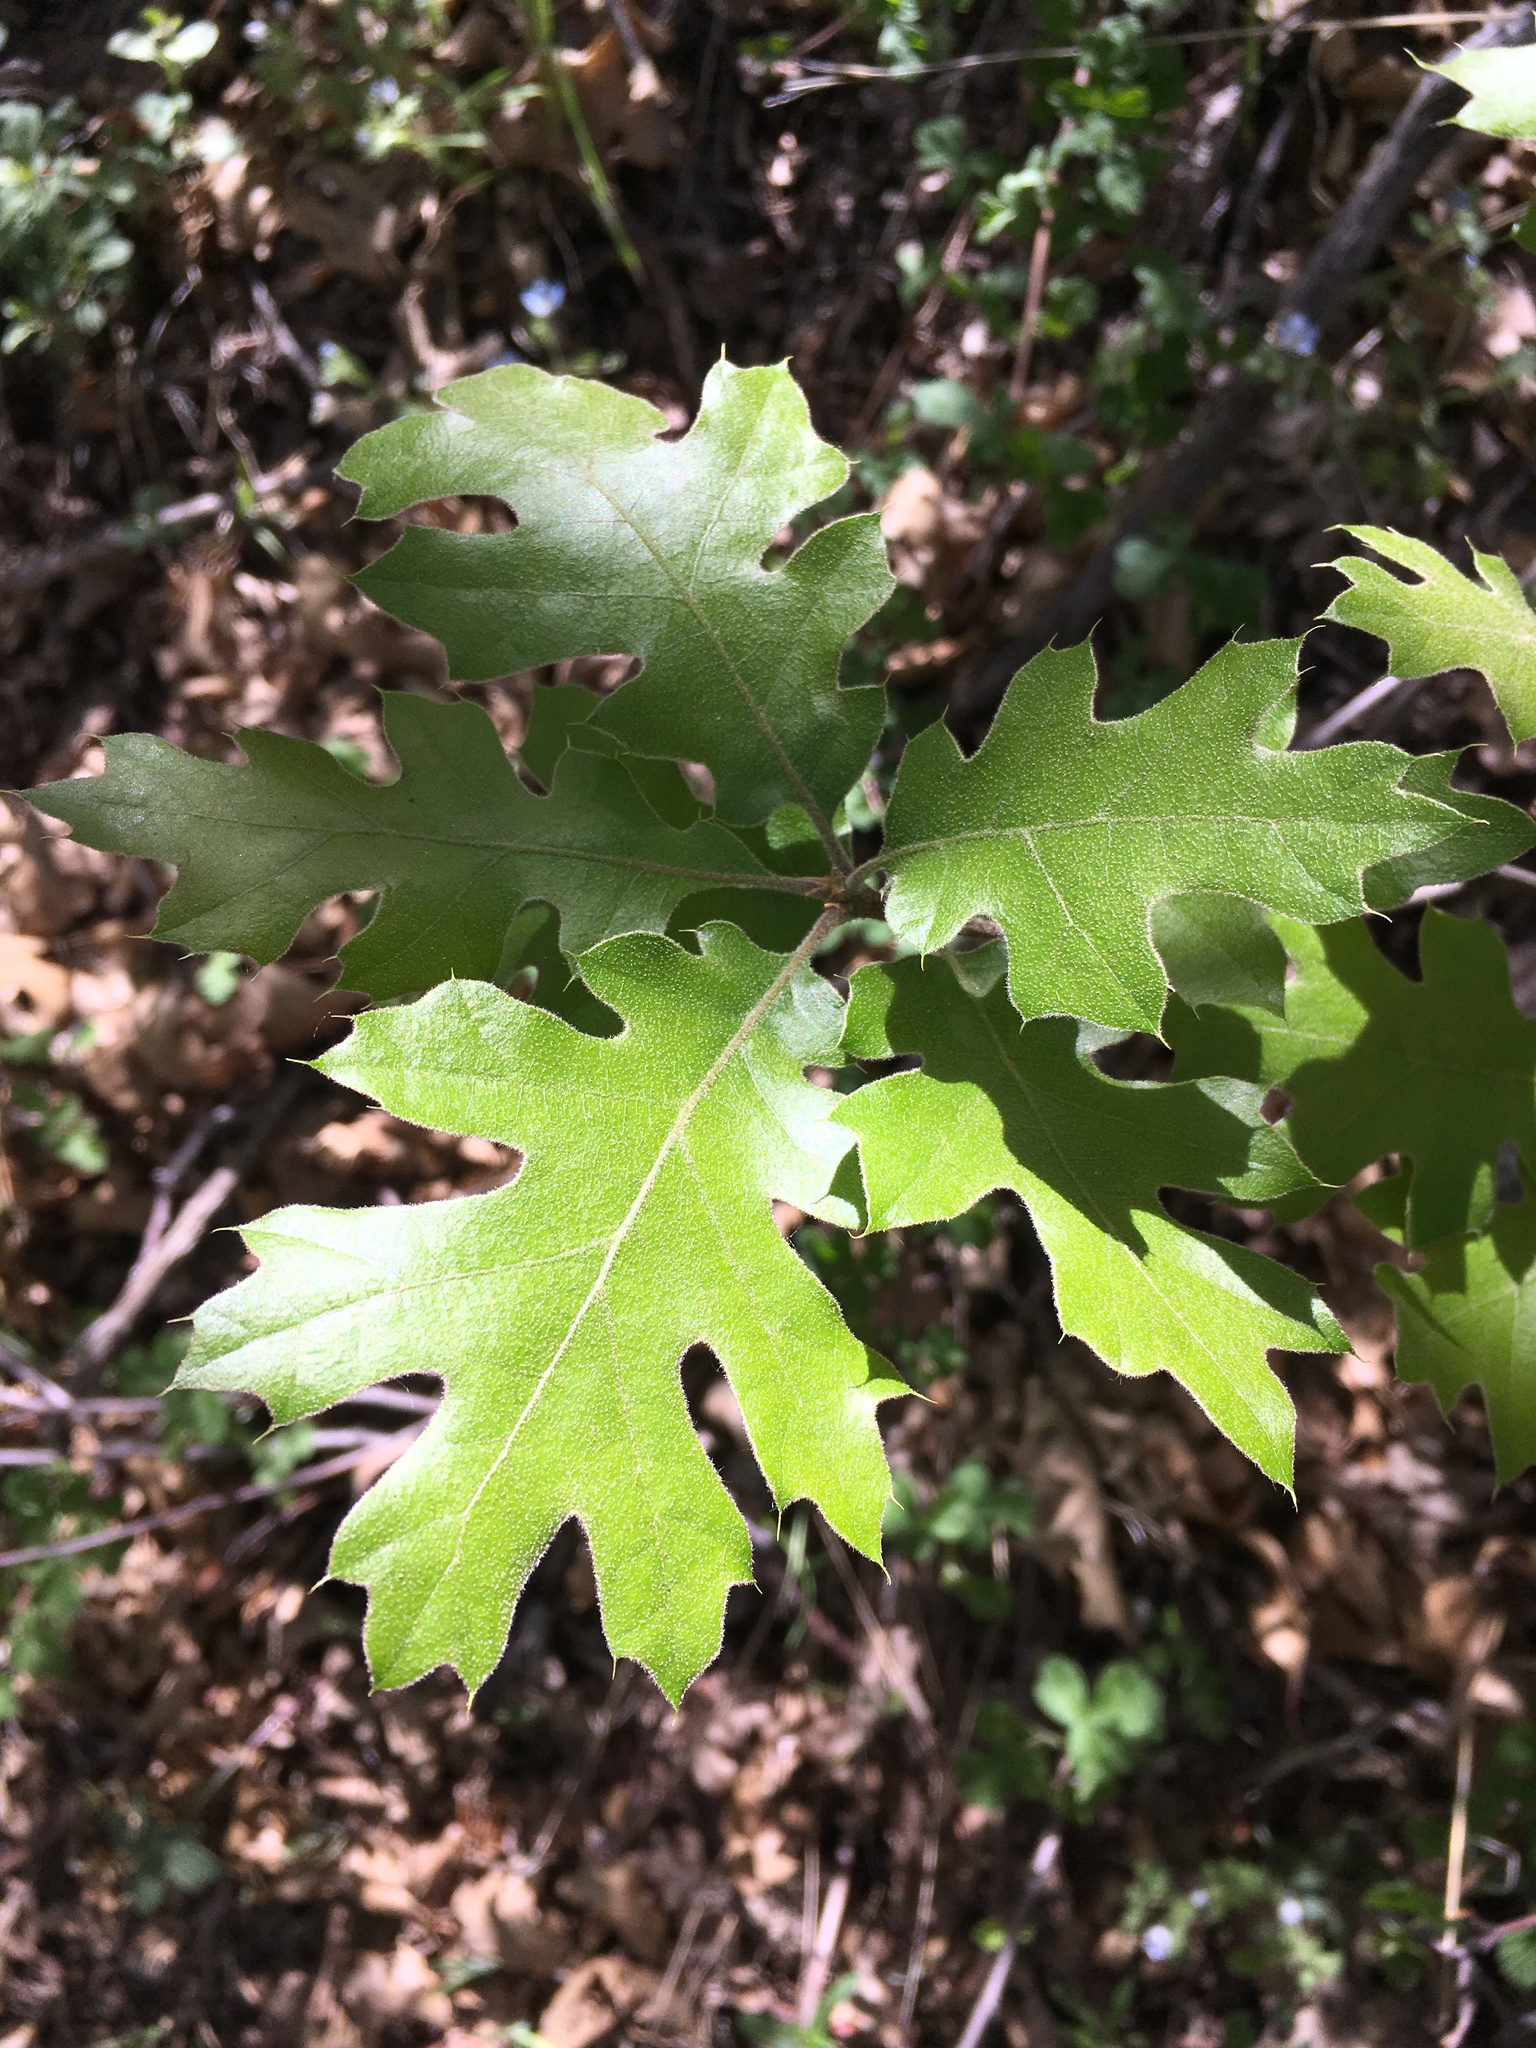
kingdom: Plantae
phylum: Tracheophyta
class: Magnoliopsida
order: Fagales
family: Fagaceae
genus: Quercus
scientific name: Quercus kelloggii
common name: California black oak
